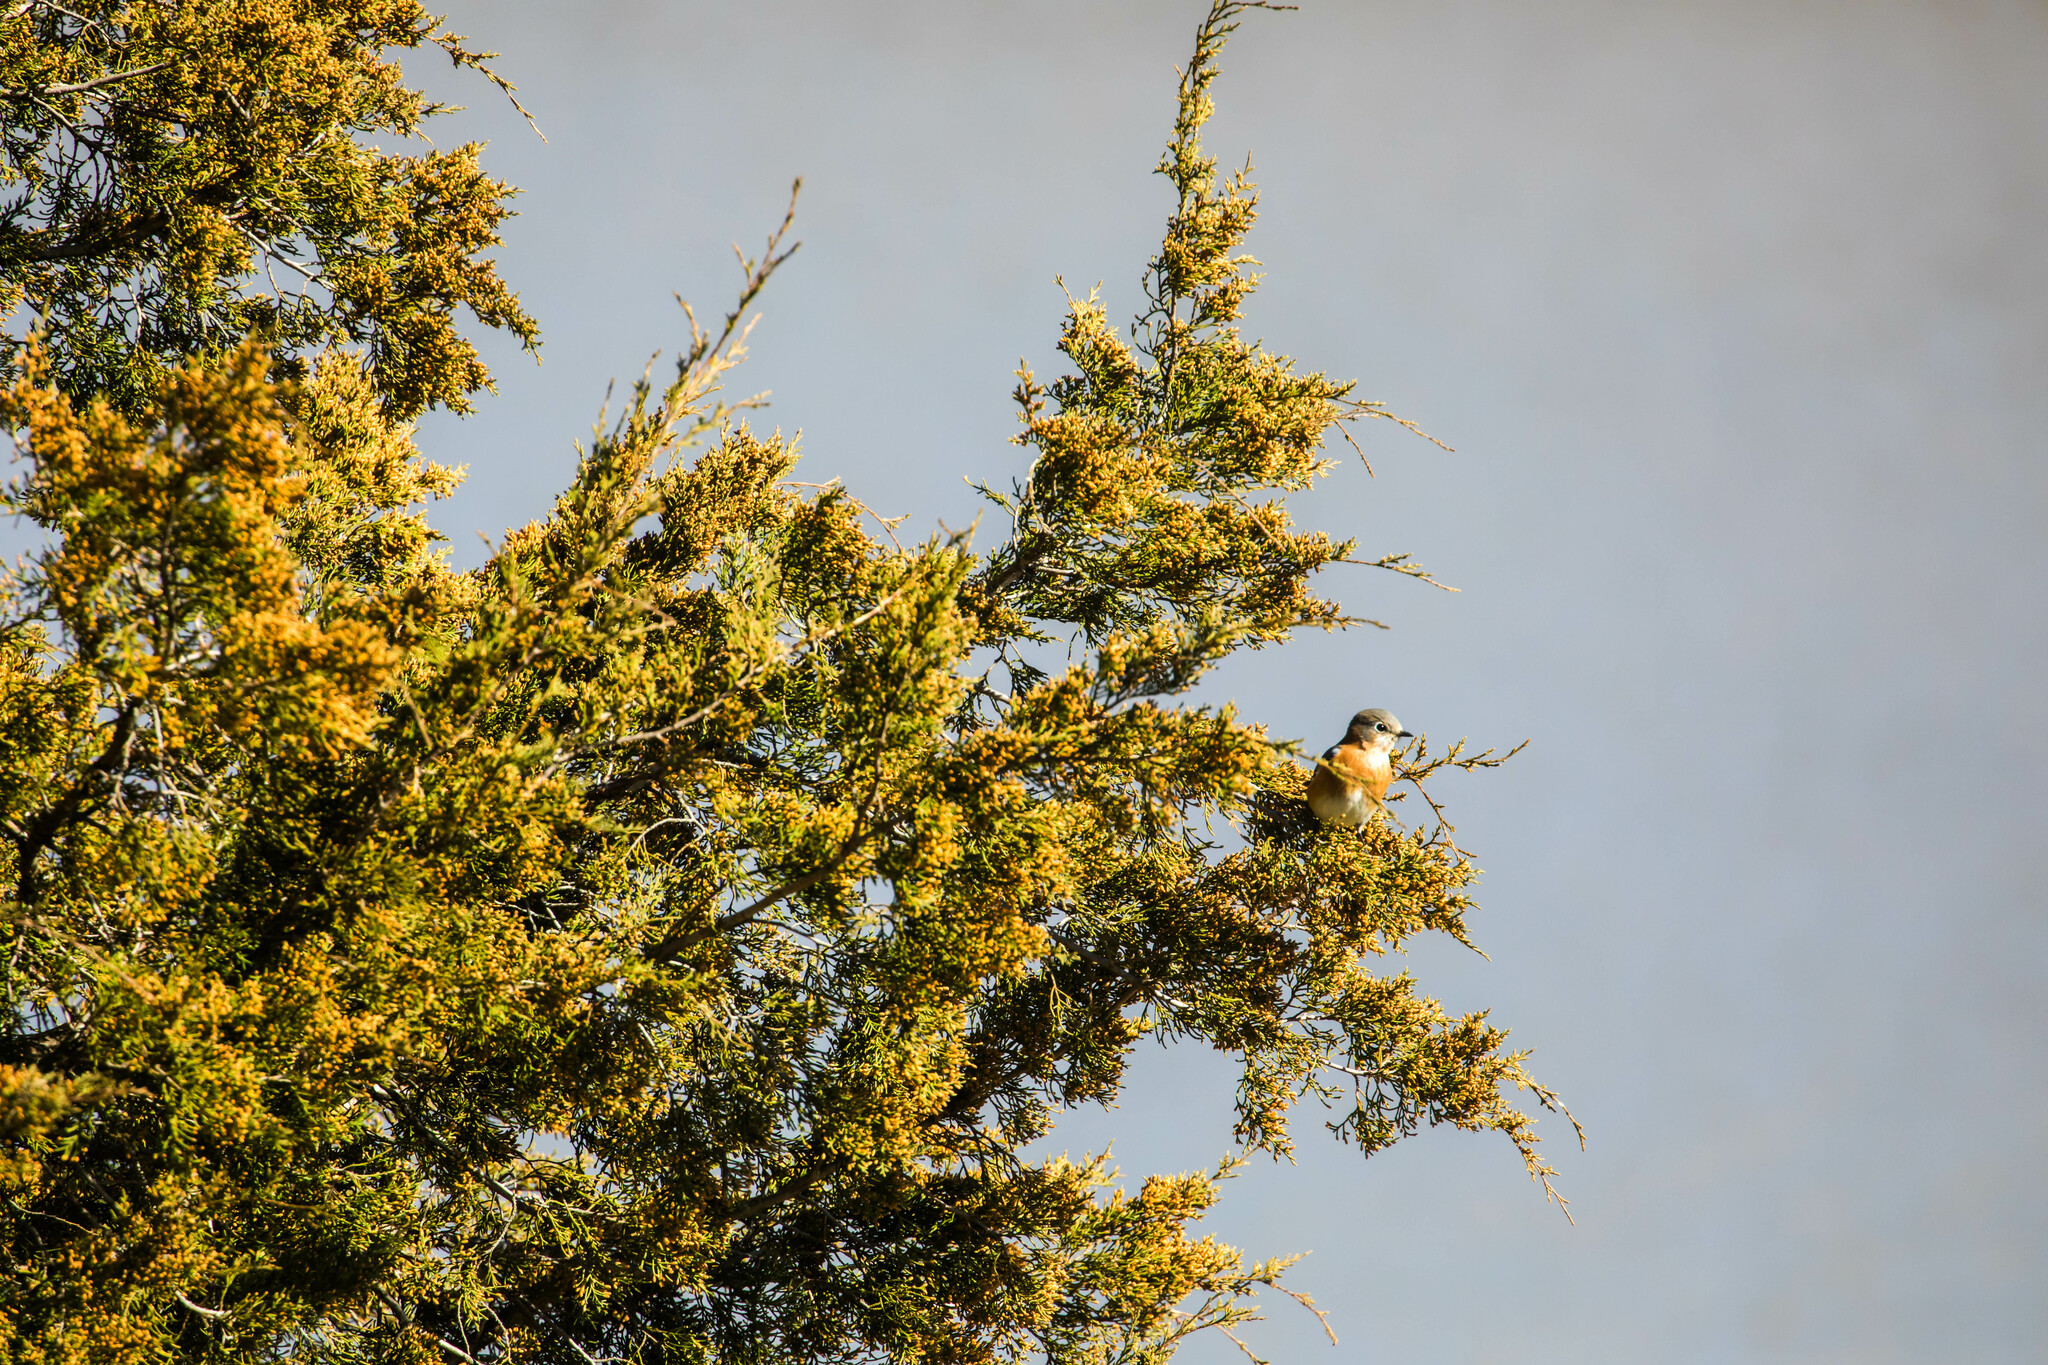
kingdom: Animalia
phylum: Chordata
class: Aves
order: Passeriformes
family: Turdidae
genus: Sialia
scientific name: Sialia sialis
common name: Eastern bluebird
